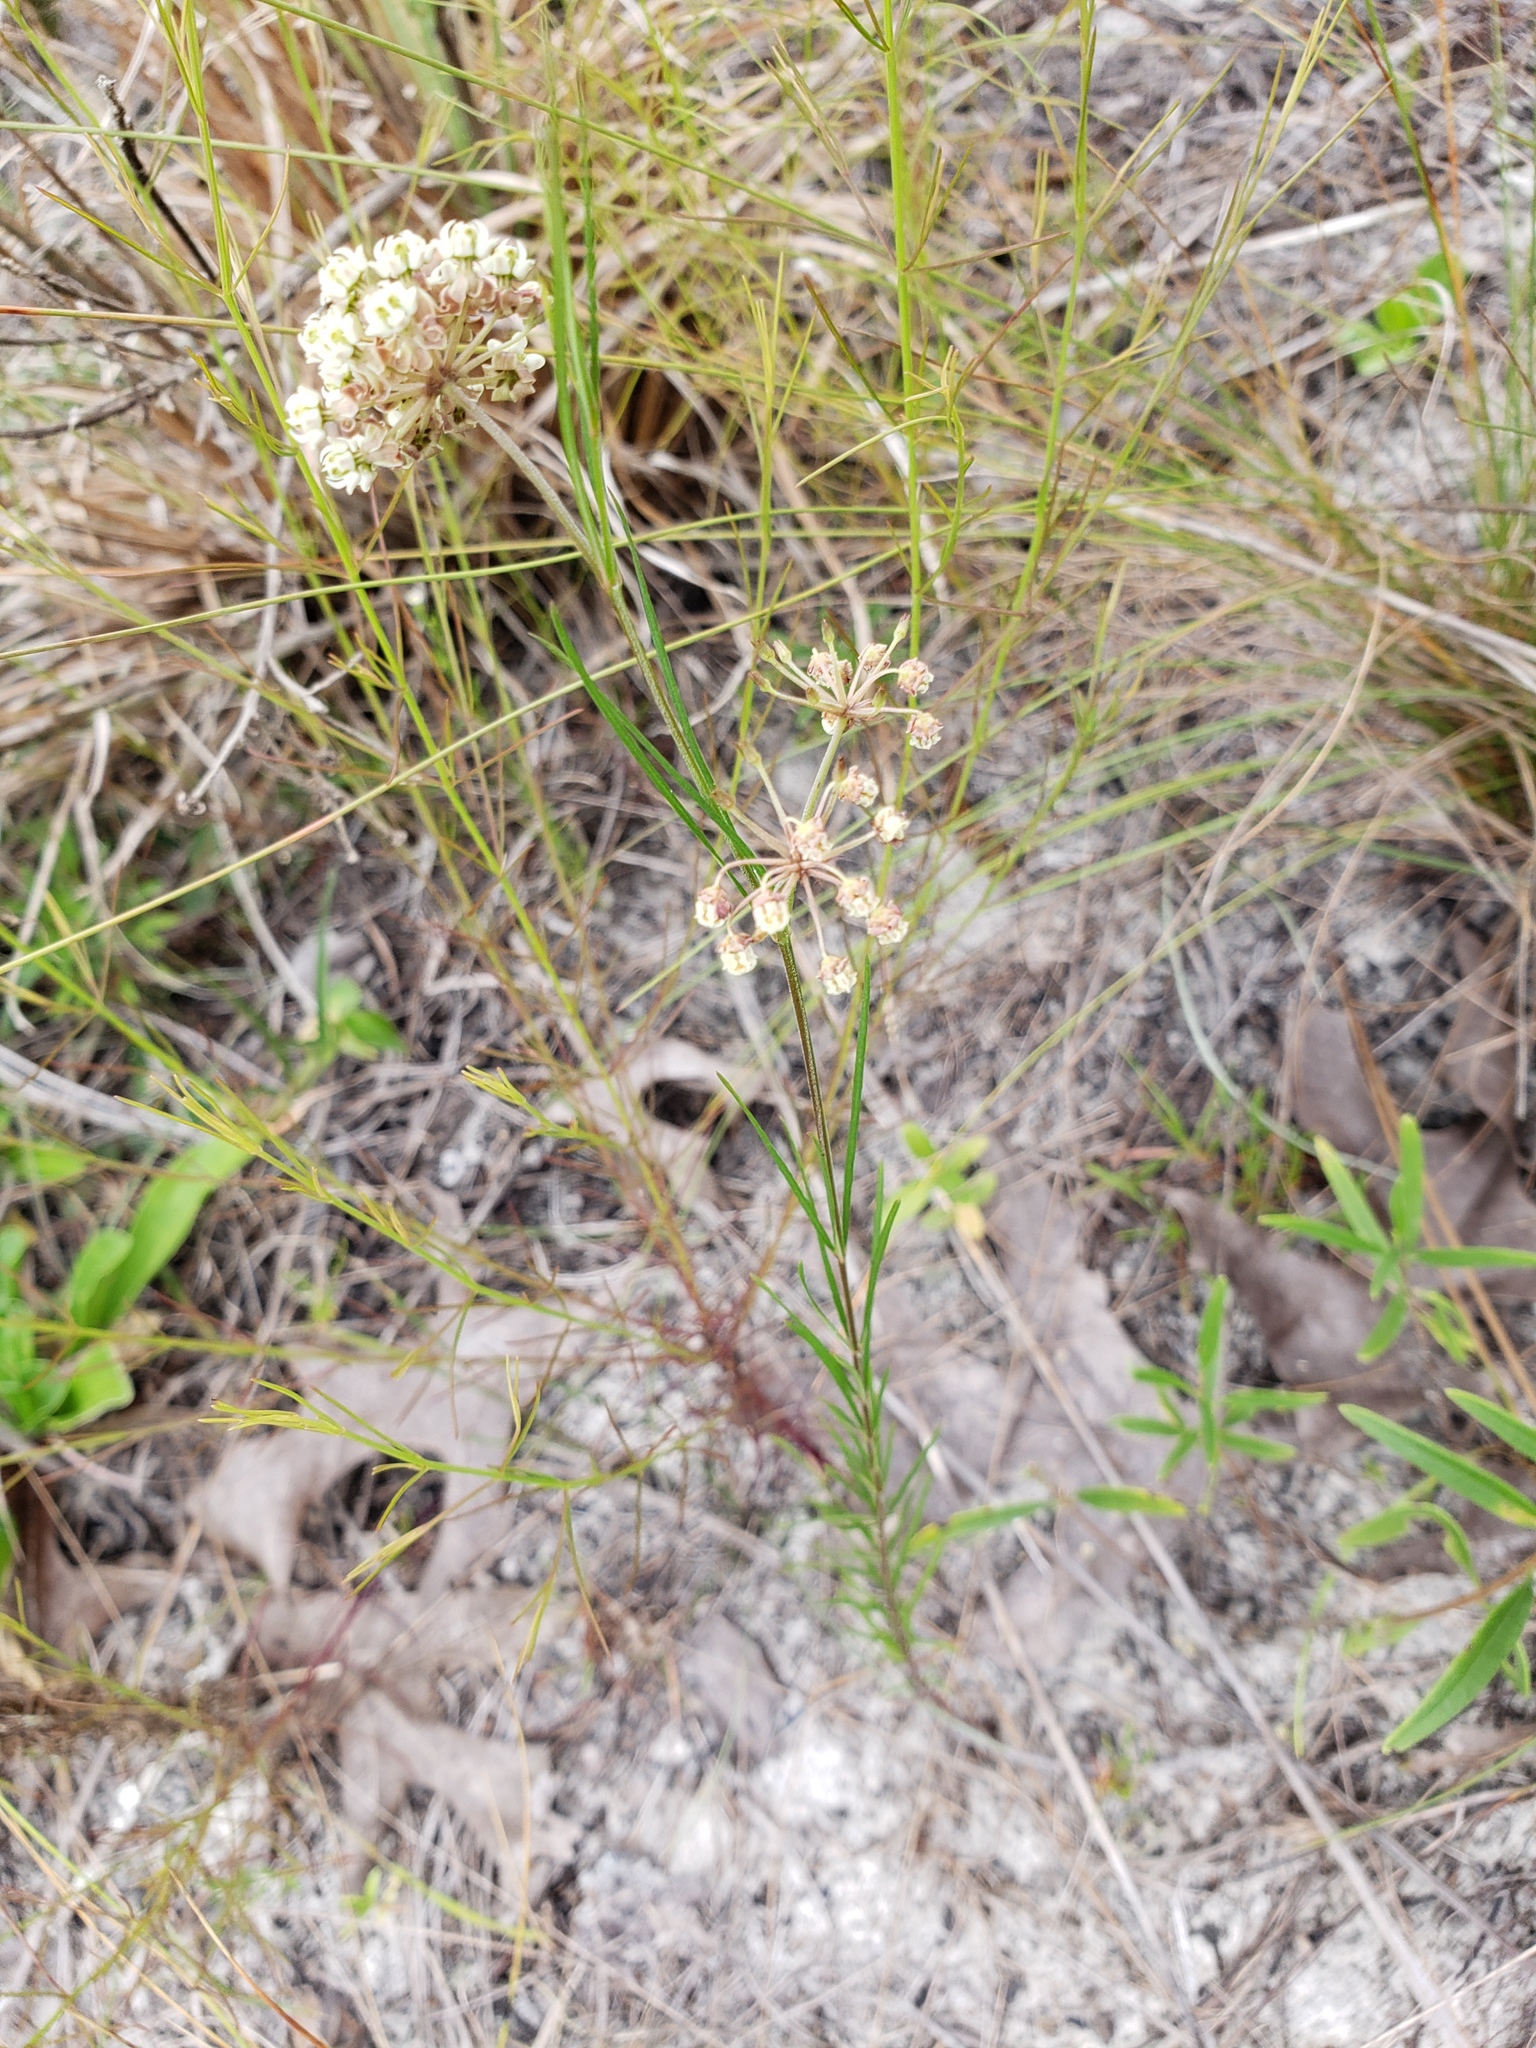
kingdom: Plantae
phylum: Tracheophyta
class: Magnoliopsida
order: Gentianales
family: Apocynaceae
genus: Asclepias
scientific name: Asclepias verticillata
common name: Eastern whorled milkweed
